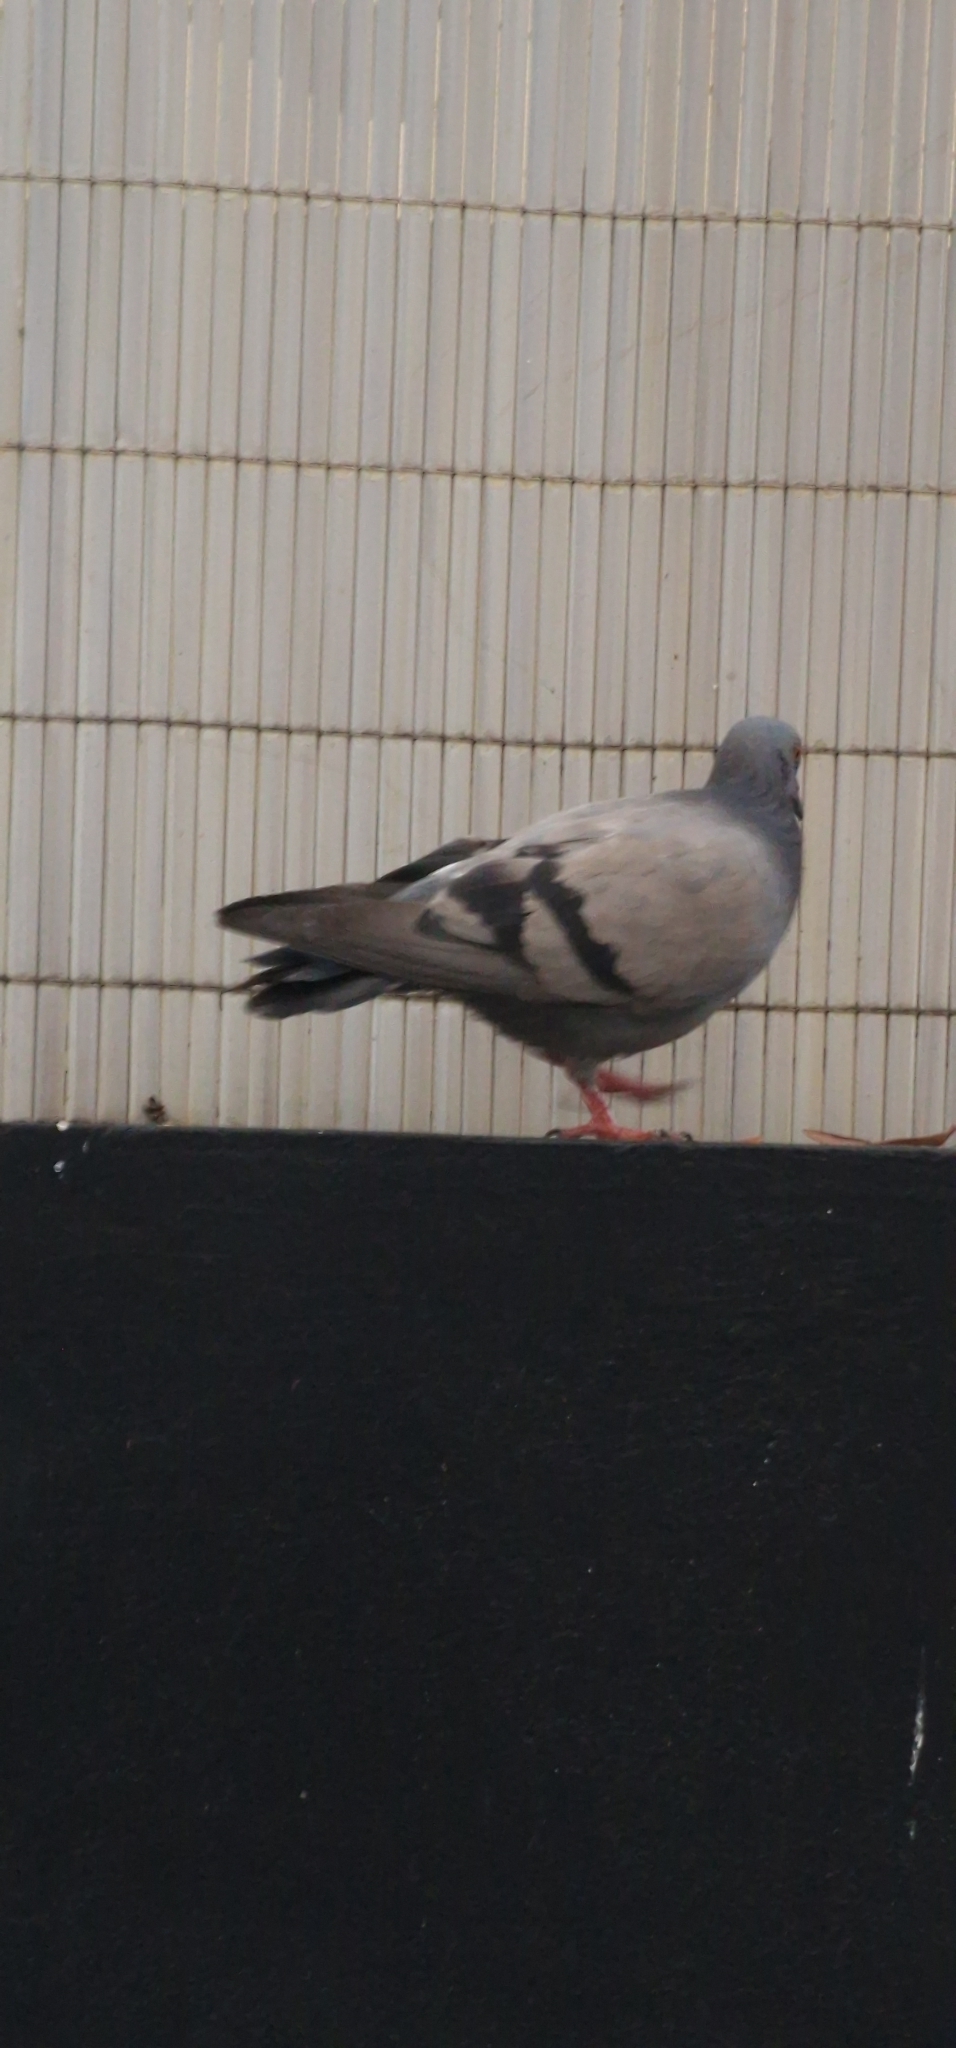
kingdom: Animalia
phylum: Chordata
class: Aves
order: Columbiformes
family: Columbidae
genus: Columba
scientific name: Columba livia
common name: Rock pigeon
